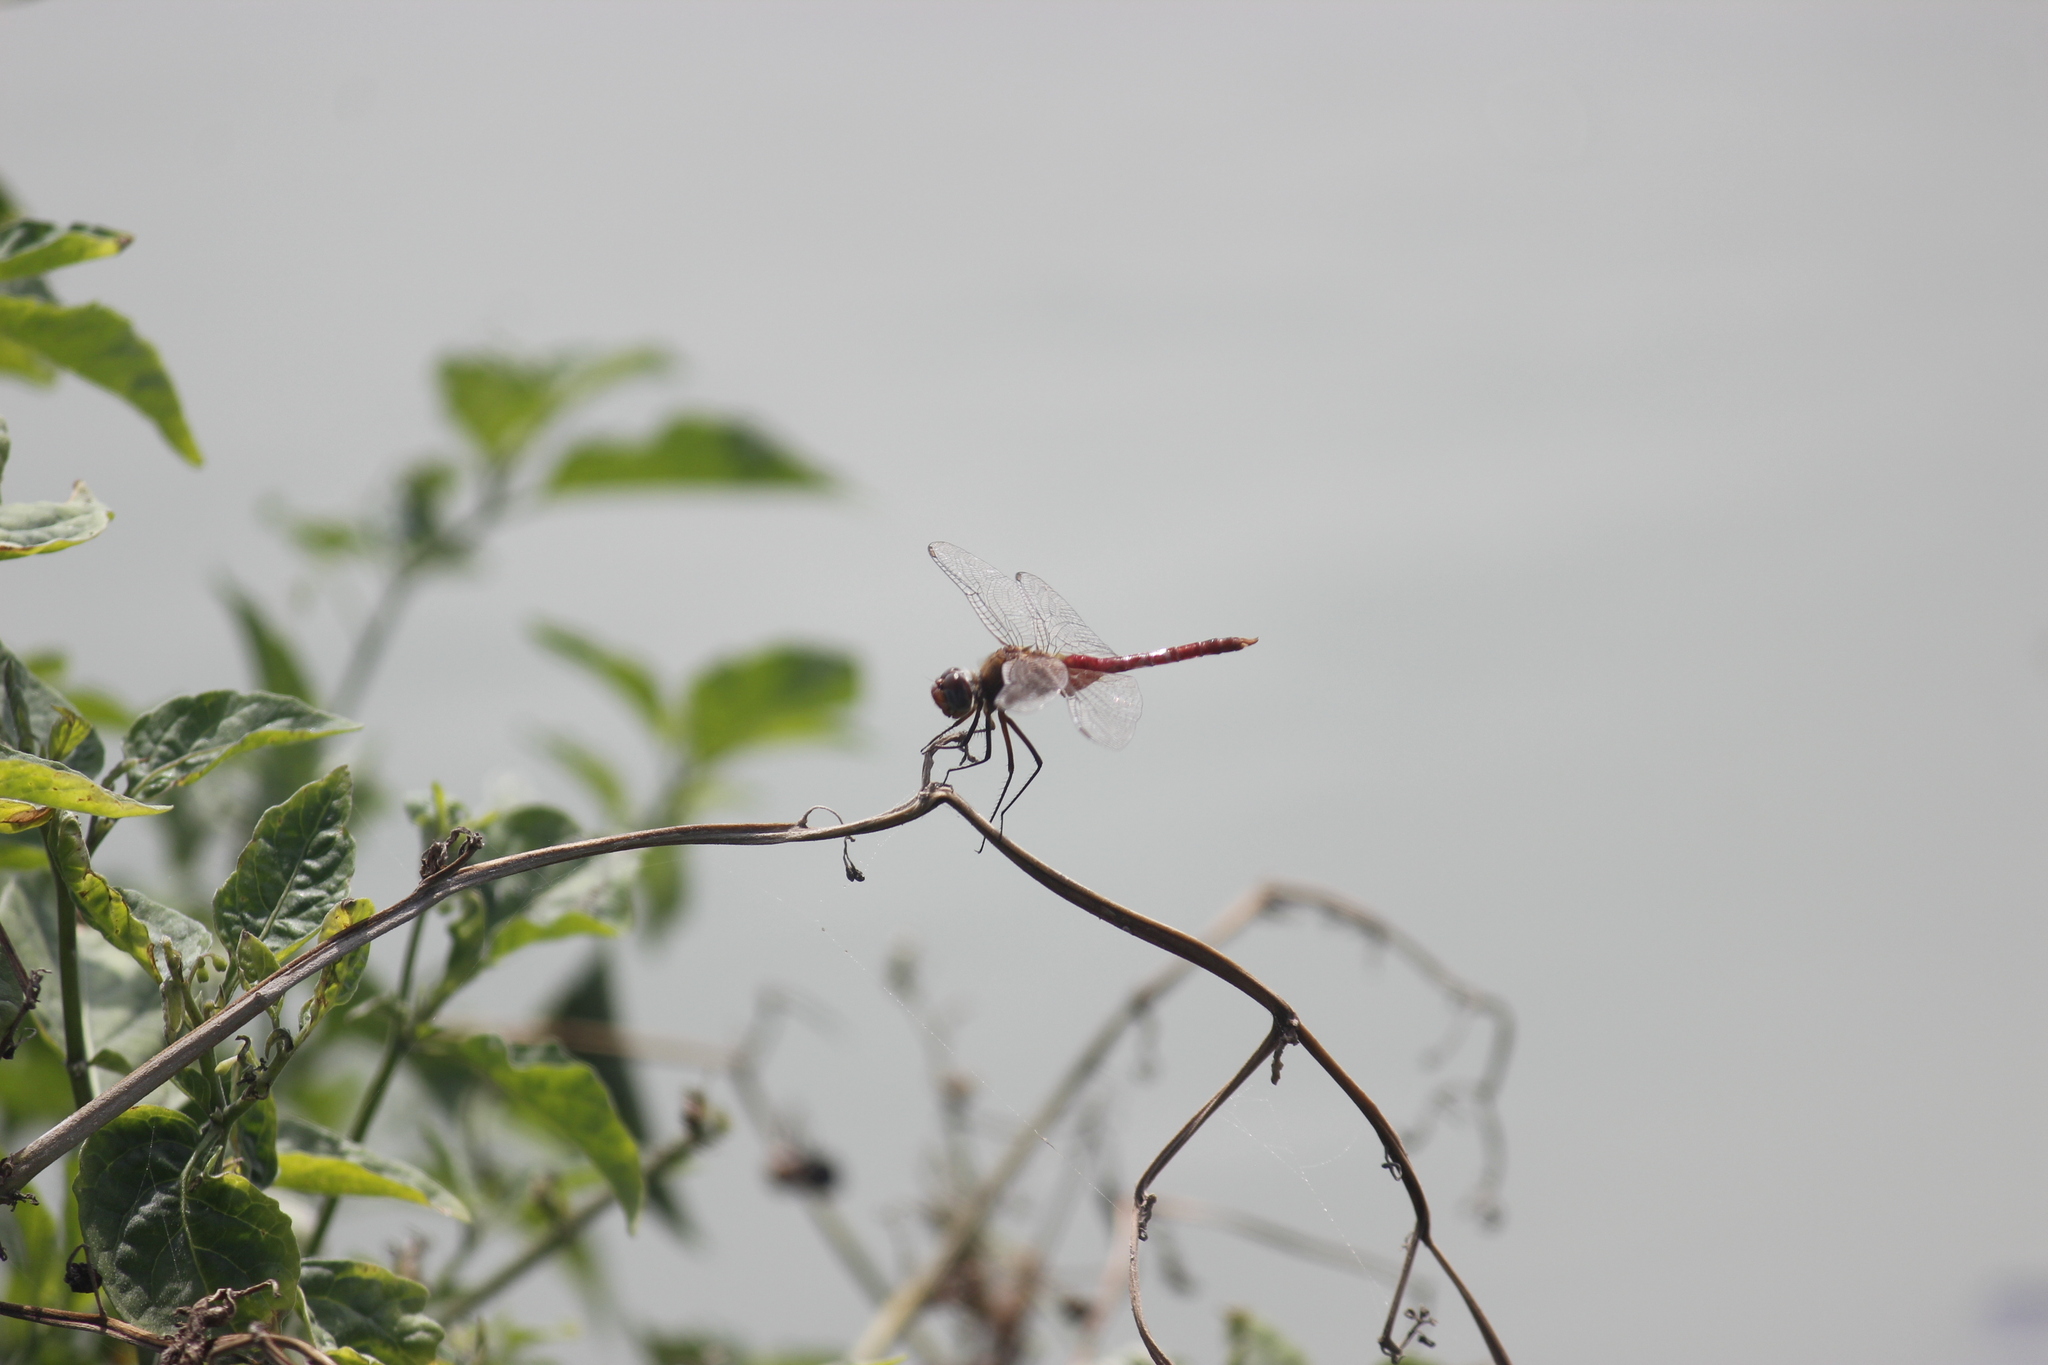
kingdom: Animalia
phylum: Arthropoda
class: Insecta
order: Odonata
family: Libellulidae
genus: Brachymesia
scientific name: Brachymesia furcata
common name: Red-taled pennant
